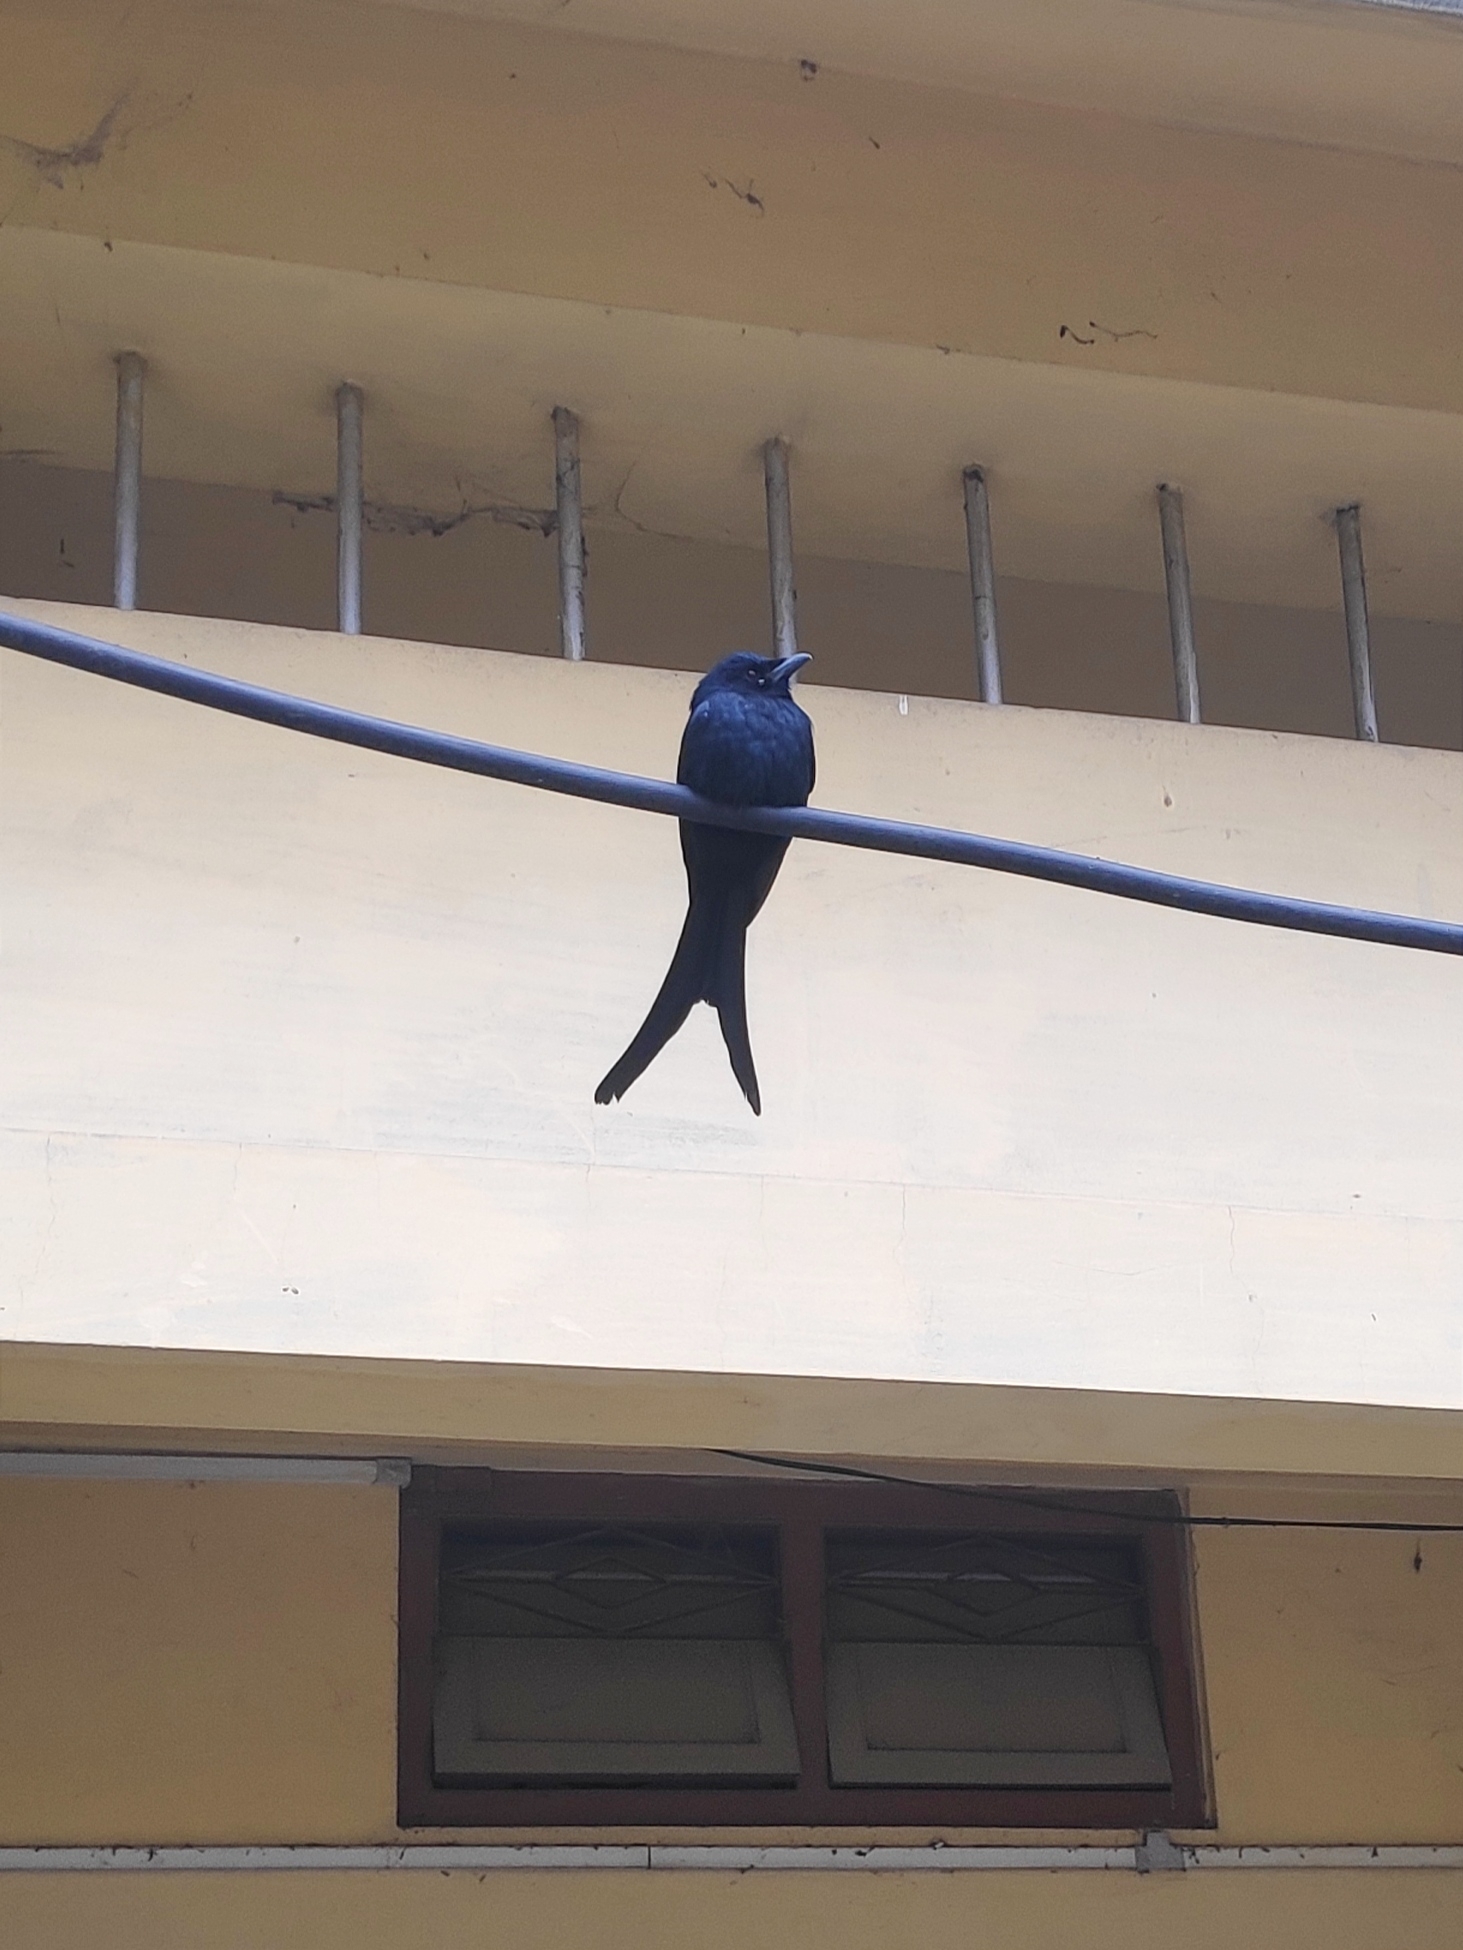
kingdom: Animalia
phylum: Chordata
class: Aves
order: Passeriformes
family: Dicruridae
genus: Dicrurus
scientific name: Dicrurus macrocercus
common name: Black drongo
